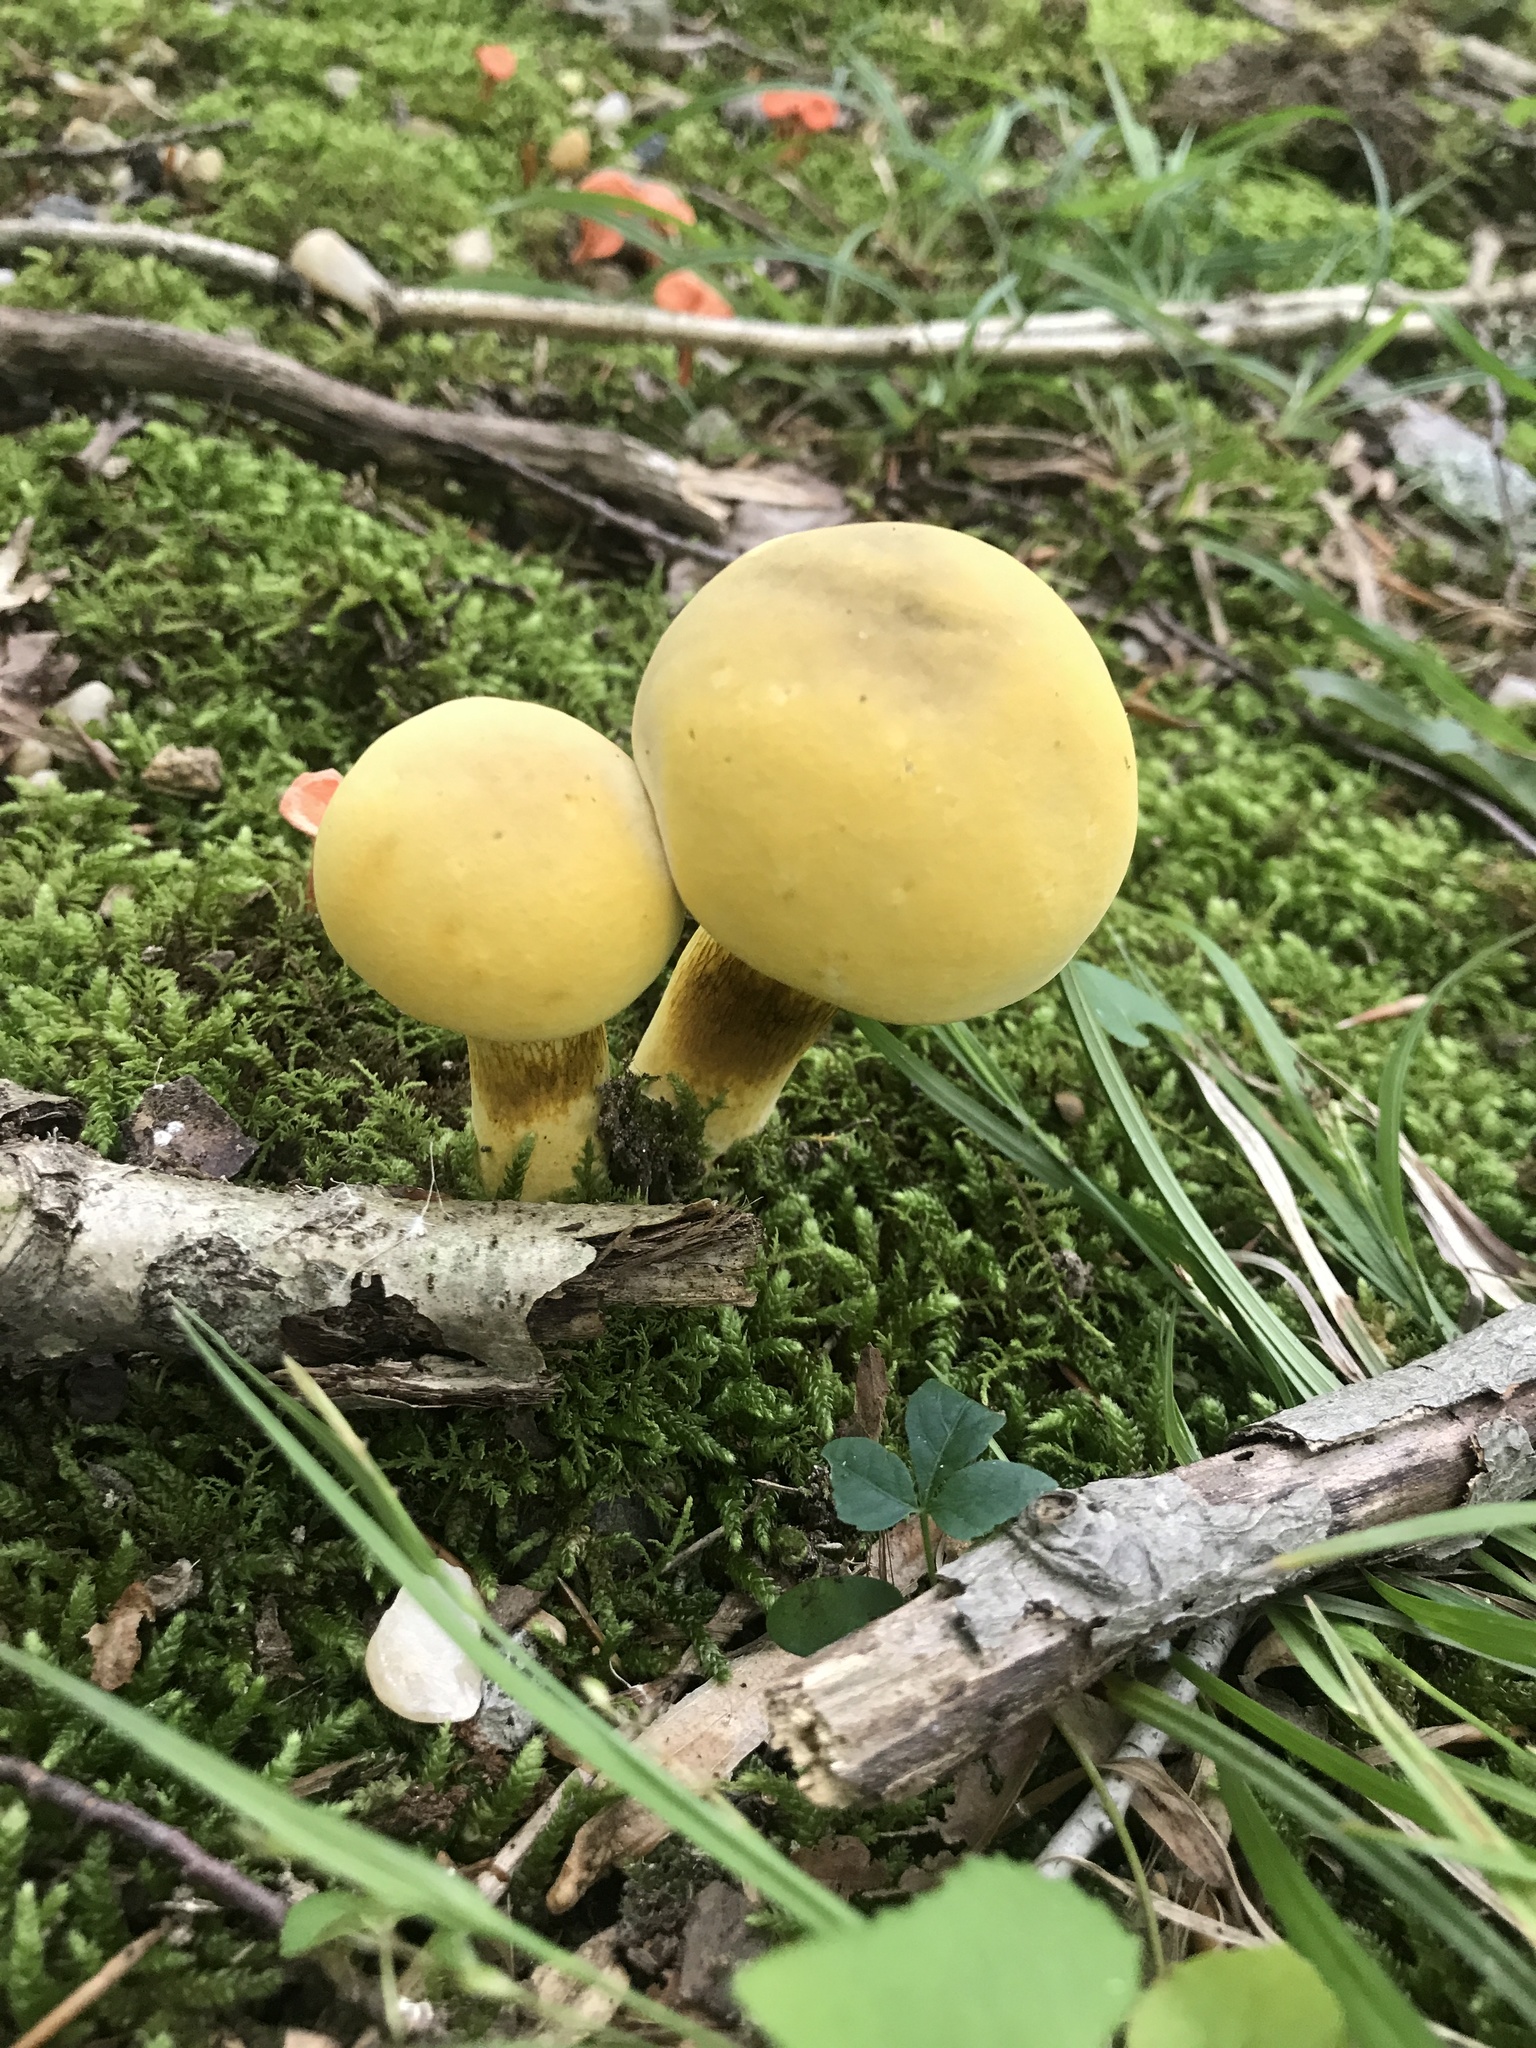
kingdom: Fungi
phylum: Basidiomycota
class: Agaricomycetes
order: Boletales
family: Boletaceae
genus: Retiboletus
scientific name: Retiboletus ornatipes
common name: Ornate-stalked bolete
